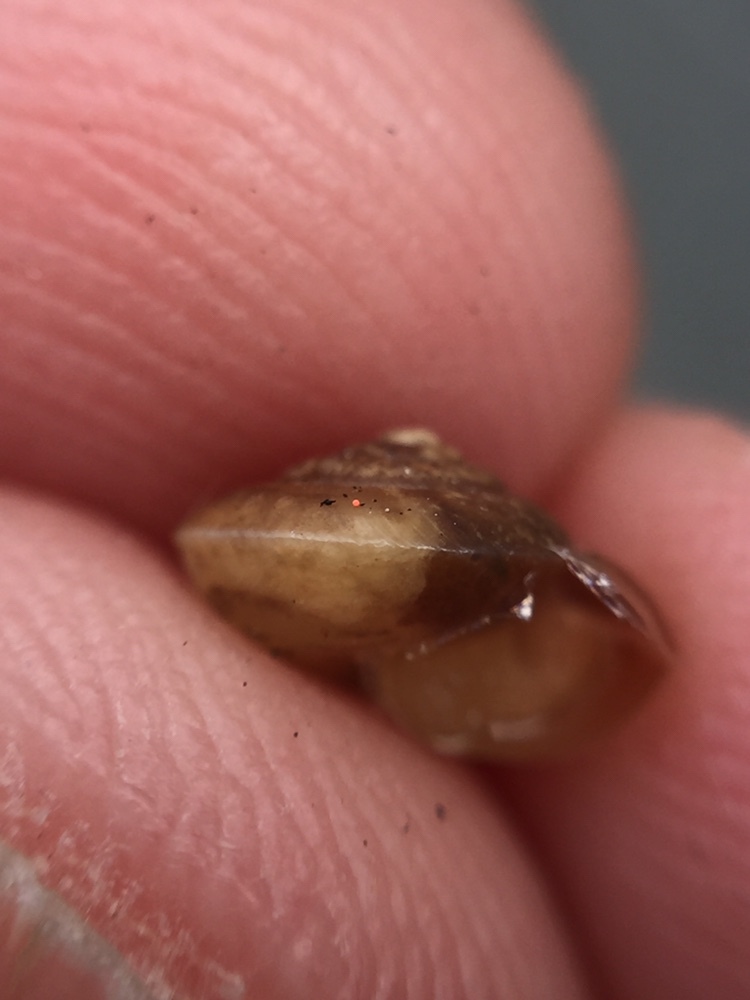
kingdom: Animalia
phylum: Mollusca
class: Gastropoda
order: Stylommatophora
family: Hygromiidae
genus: Hygromia
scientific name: Hygromia cinctella
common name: Girdled snail
